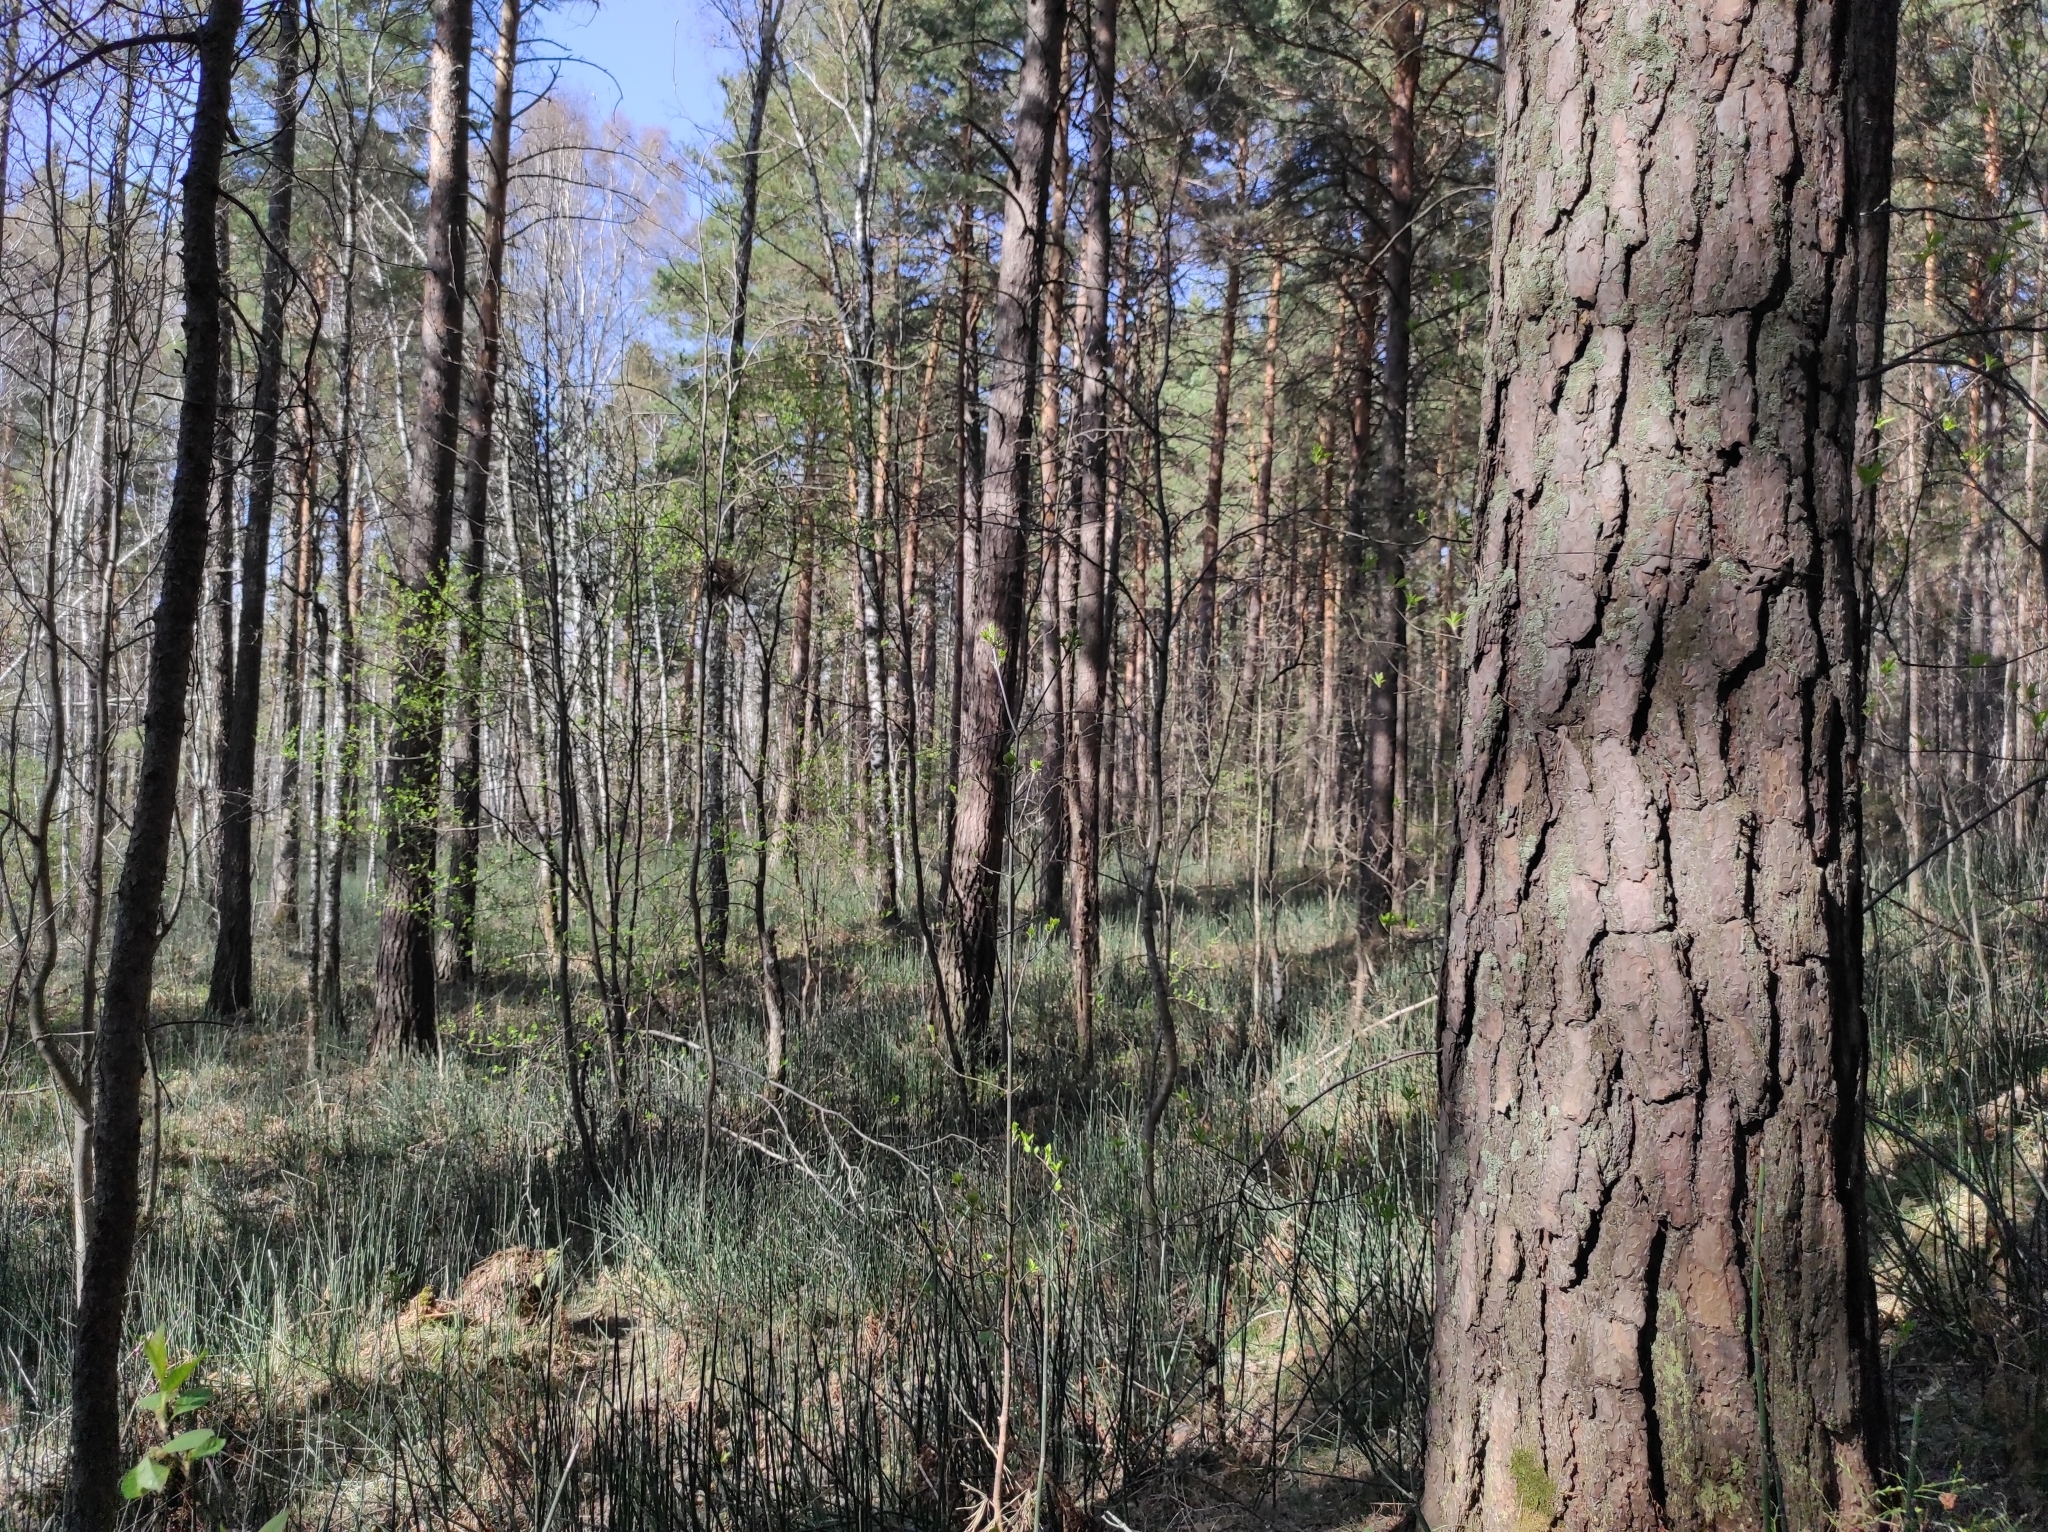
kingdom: Plantae
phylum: Tracheophyta
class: Magnoliopsida
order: Malvales
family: Thymelaeaceae
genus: Daphne
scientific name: Daphne mezereum
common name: Mezereon
